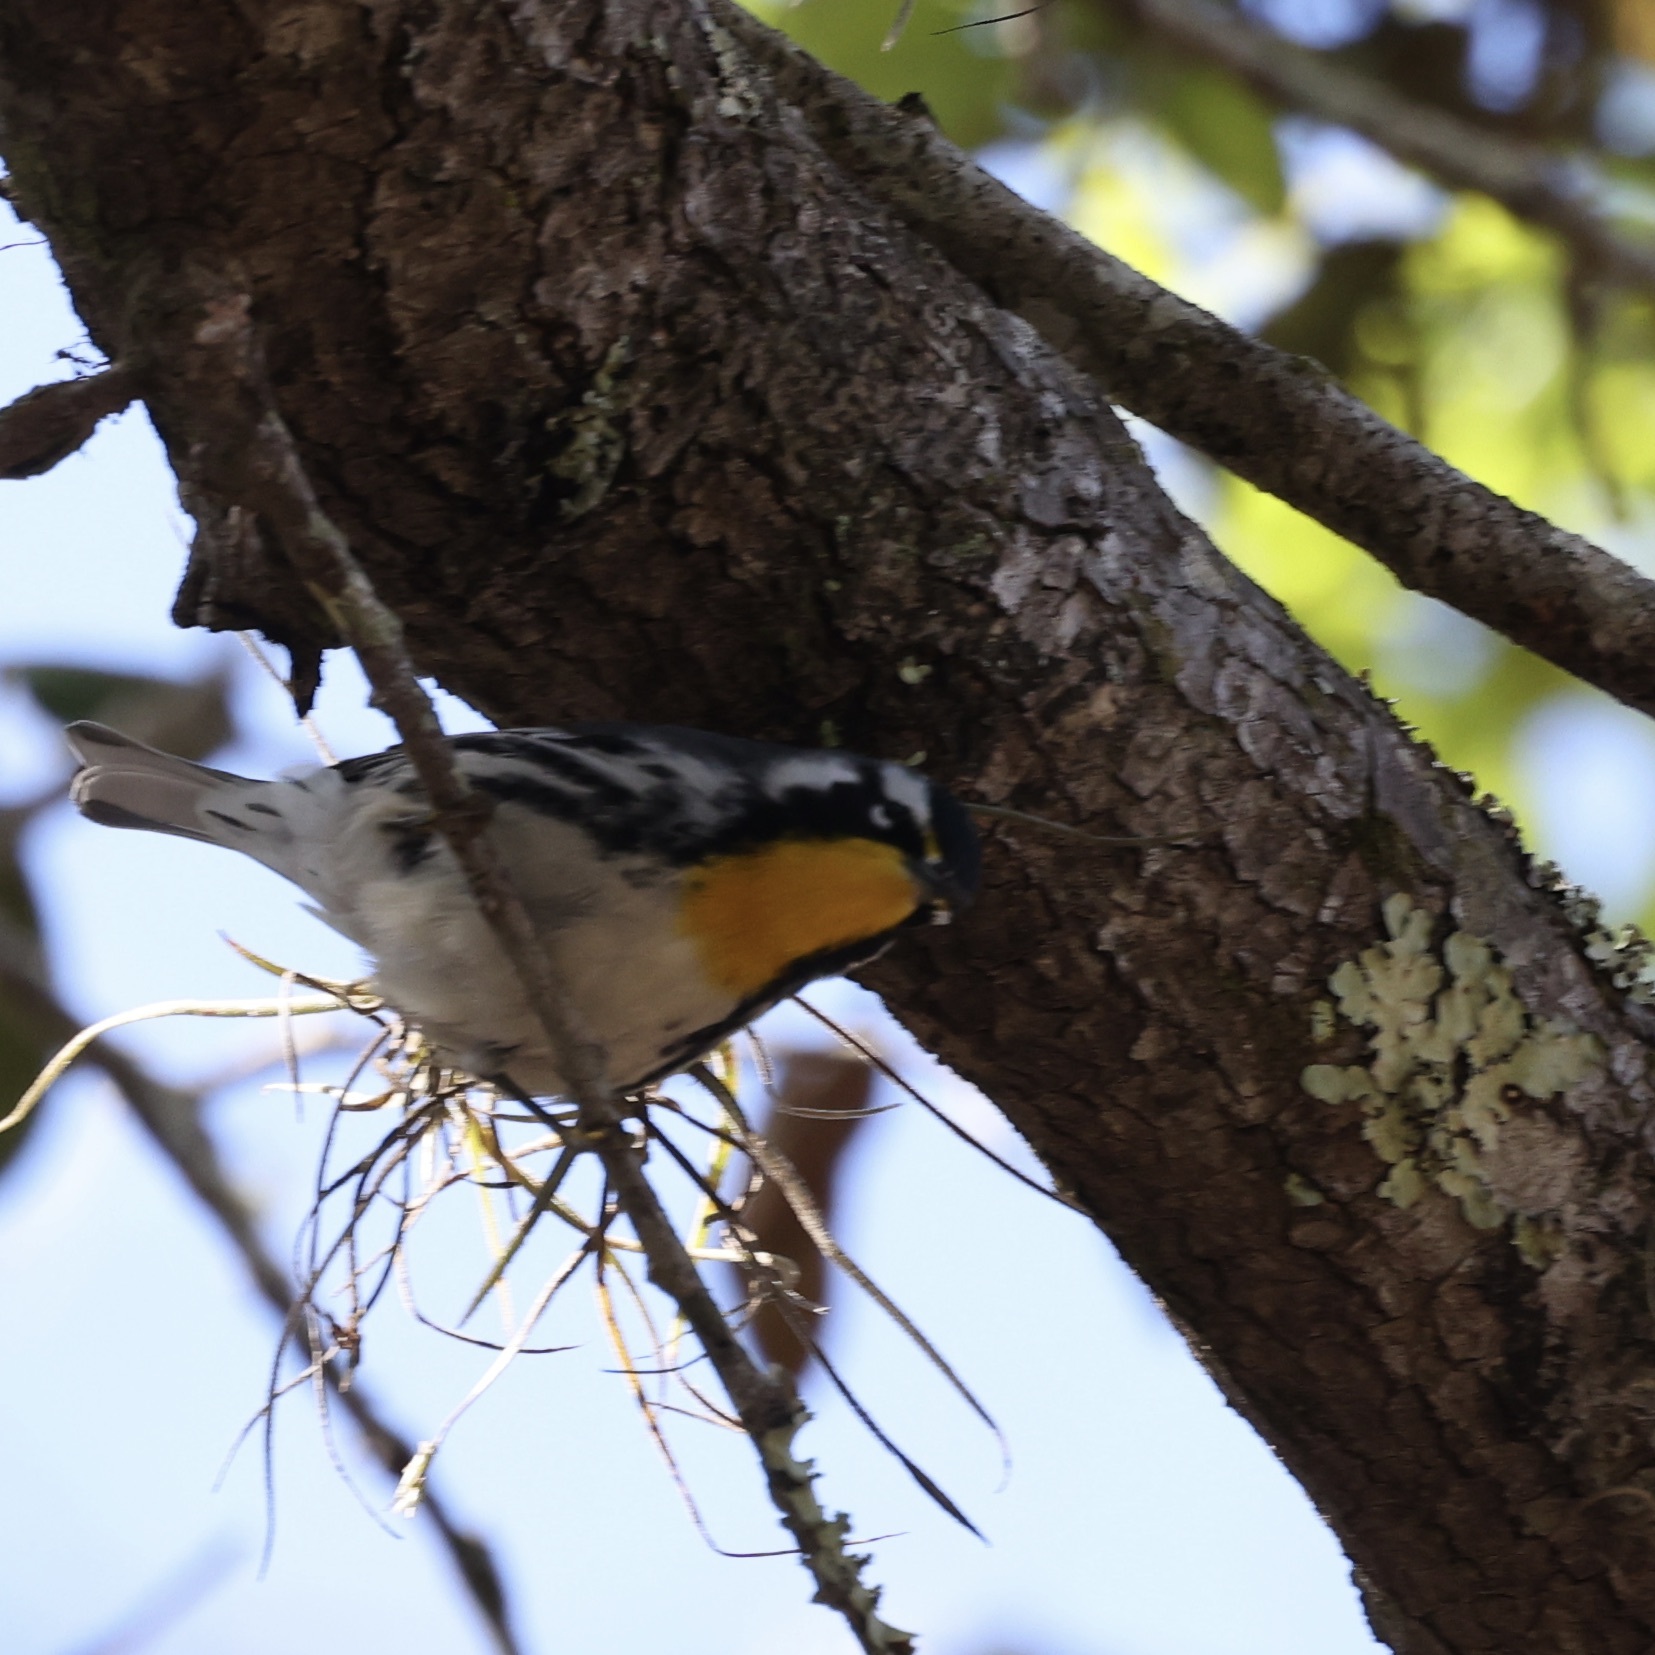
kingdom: Animalia
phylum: Chordata
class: Aves
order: Passeriformes
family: Parulidae
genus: Setophaga
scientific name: Setophaga dominica
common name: Yellow-throated warbler
